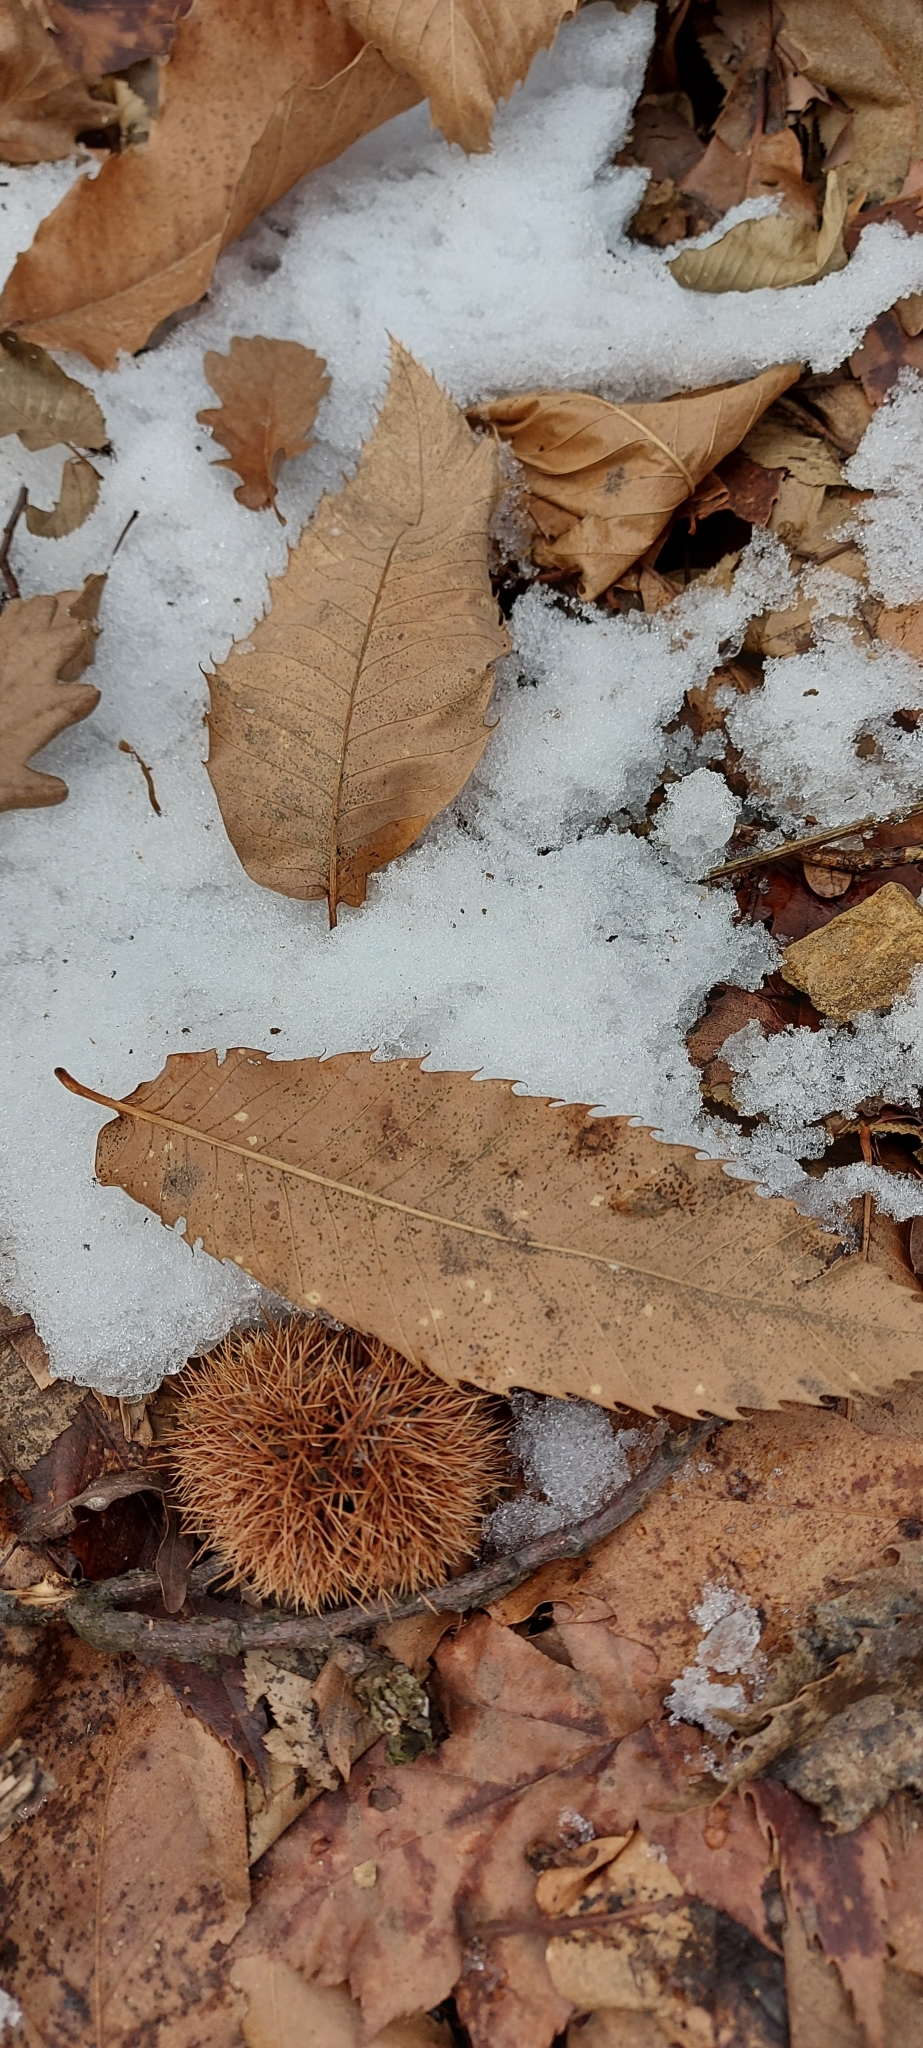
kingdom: Plantae
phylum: Tracheophyta
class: Magnoliopsida
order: Fagales
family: Fagaceae
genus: Castanea
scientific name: Castanea sativa
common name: Sweet chestnut
